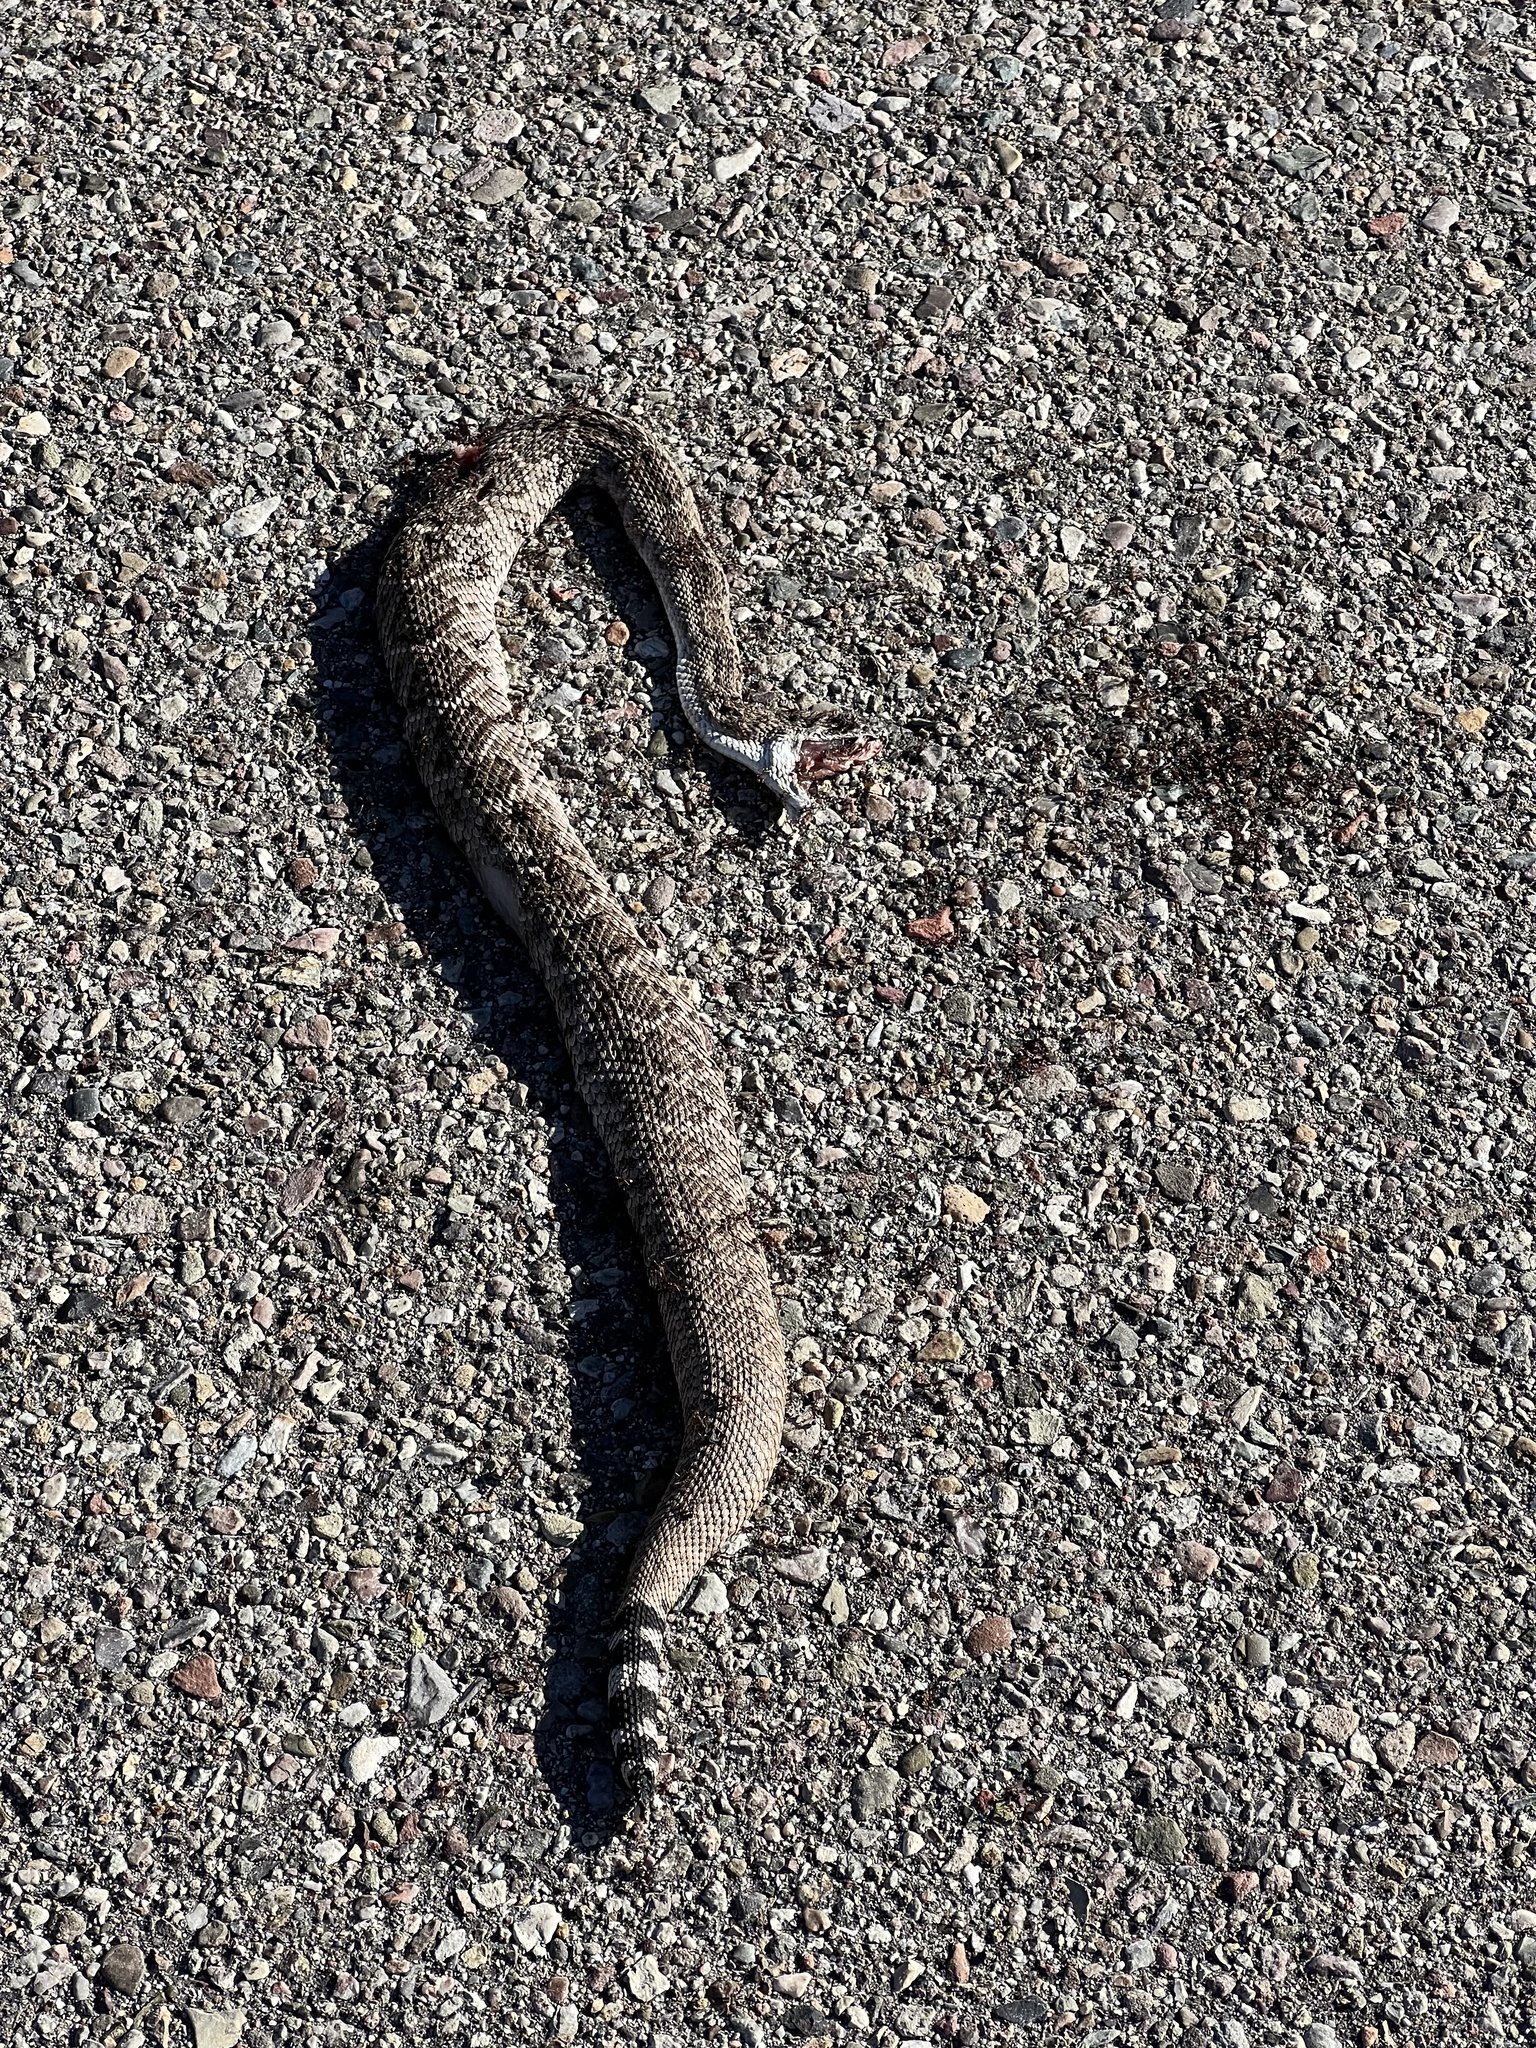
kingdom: Animalia
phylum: Chordata
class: Squamata
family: Viperidae
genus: Crotalus
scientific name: Crotalus atrox
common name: Western diamond-backed rattlesnake
